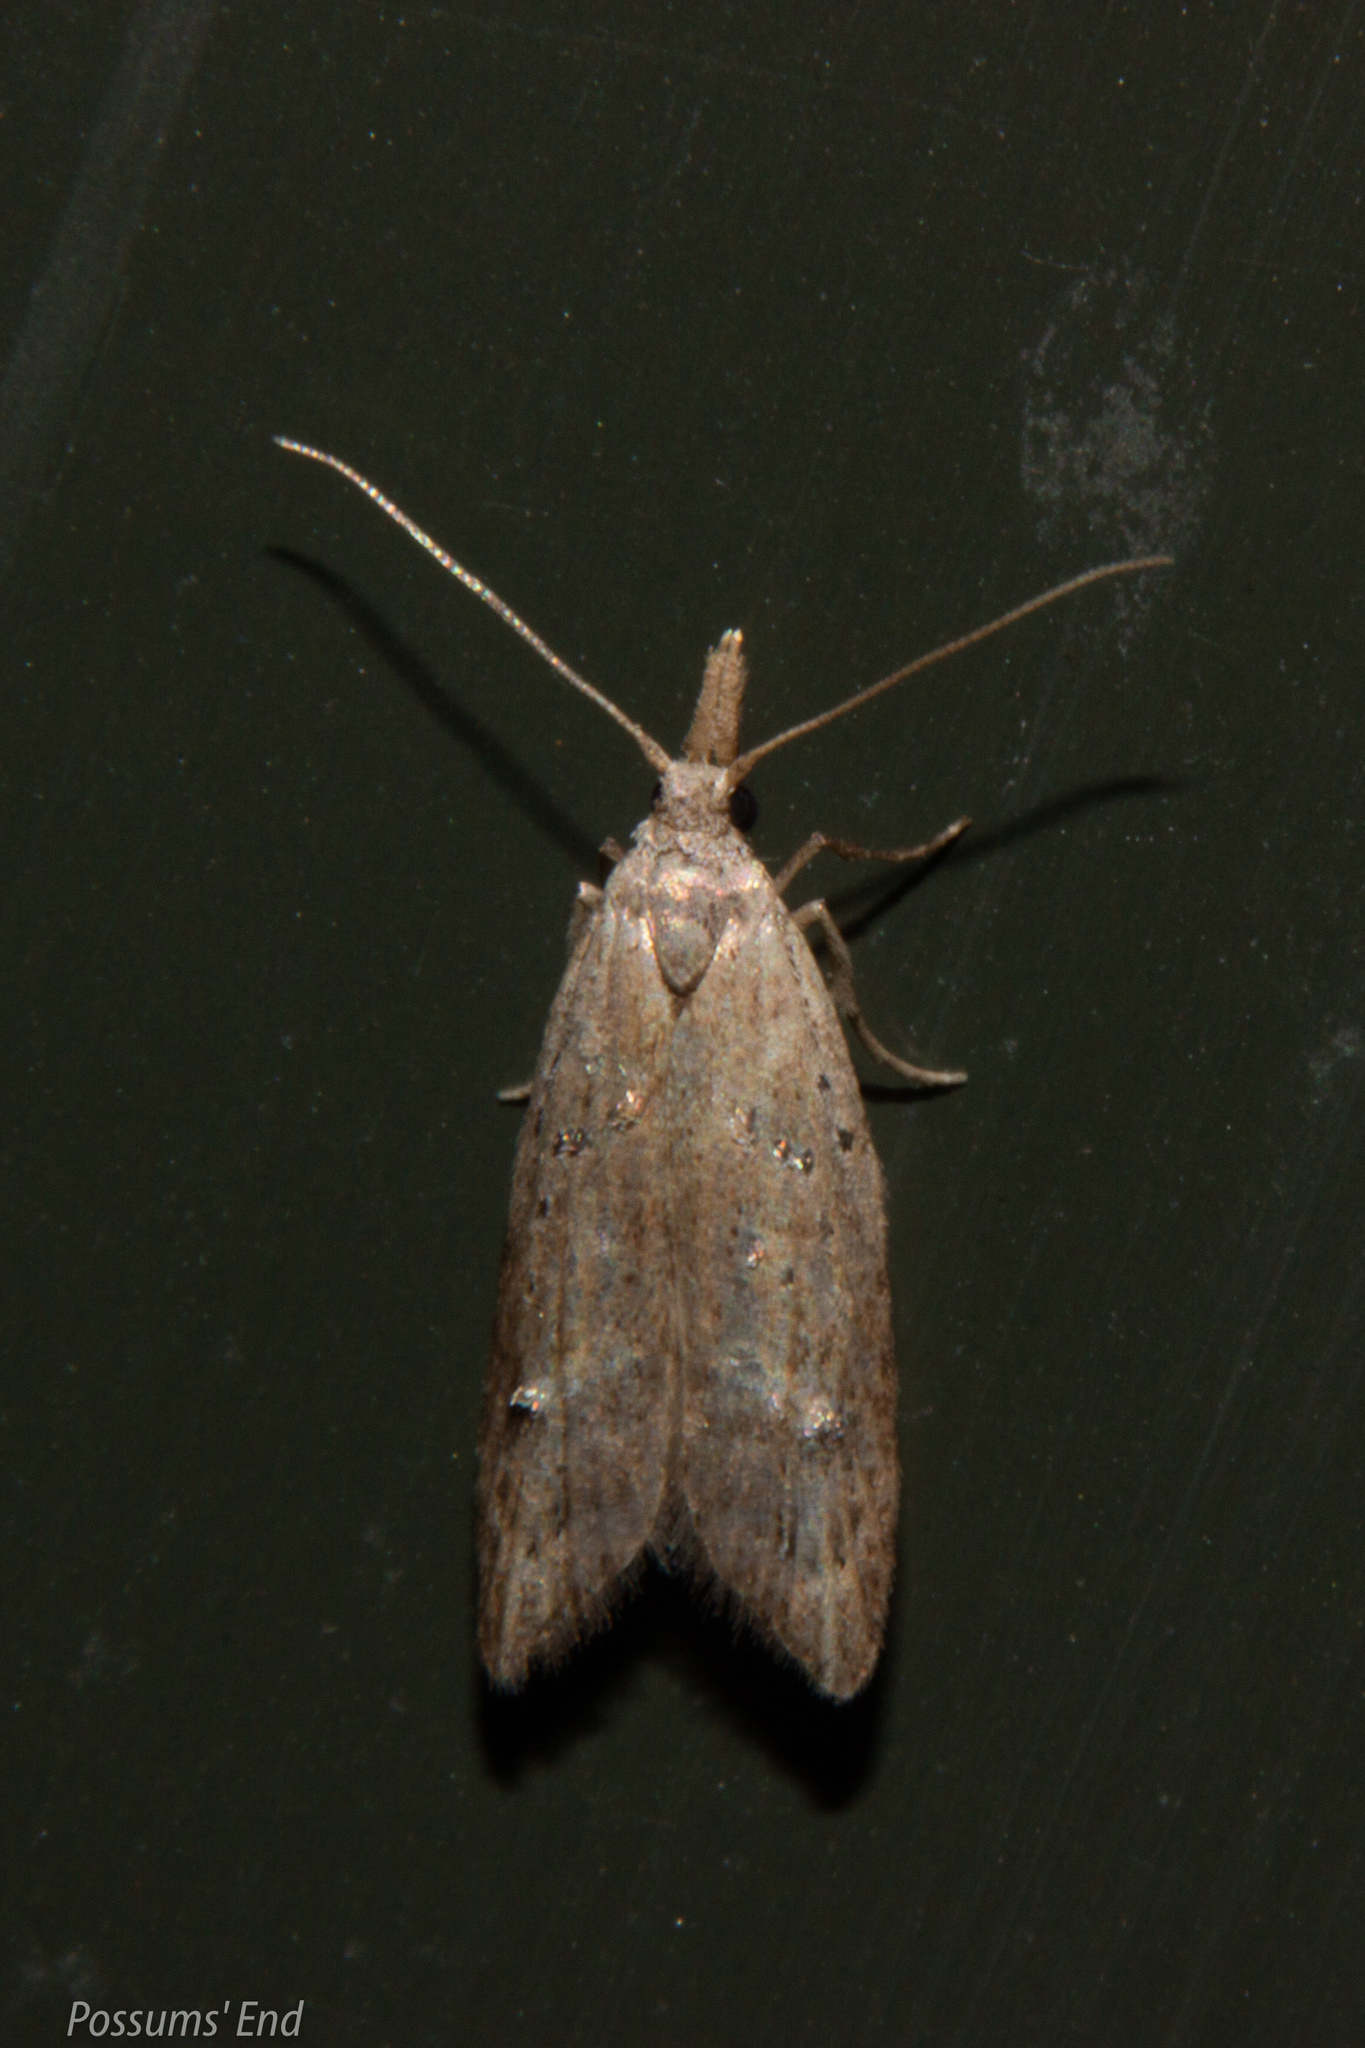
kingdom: Animalia
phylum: Arthropoda
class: Insecta
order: Lepidoptera
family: Carposinidae
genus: Carposina
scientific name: Carposina rubophaga
